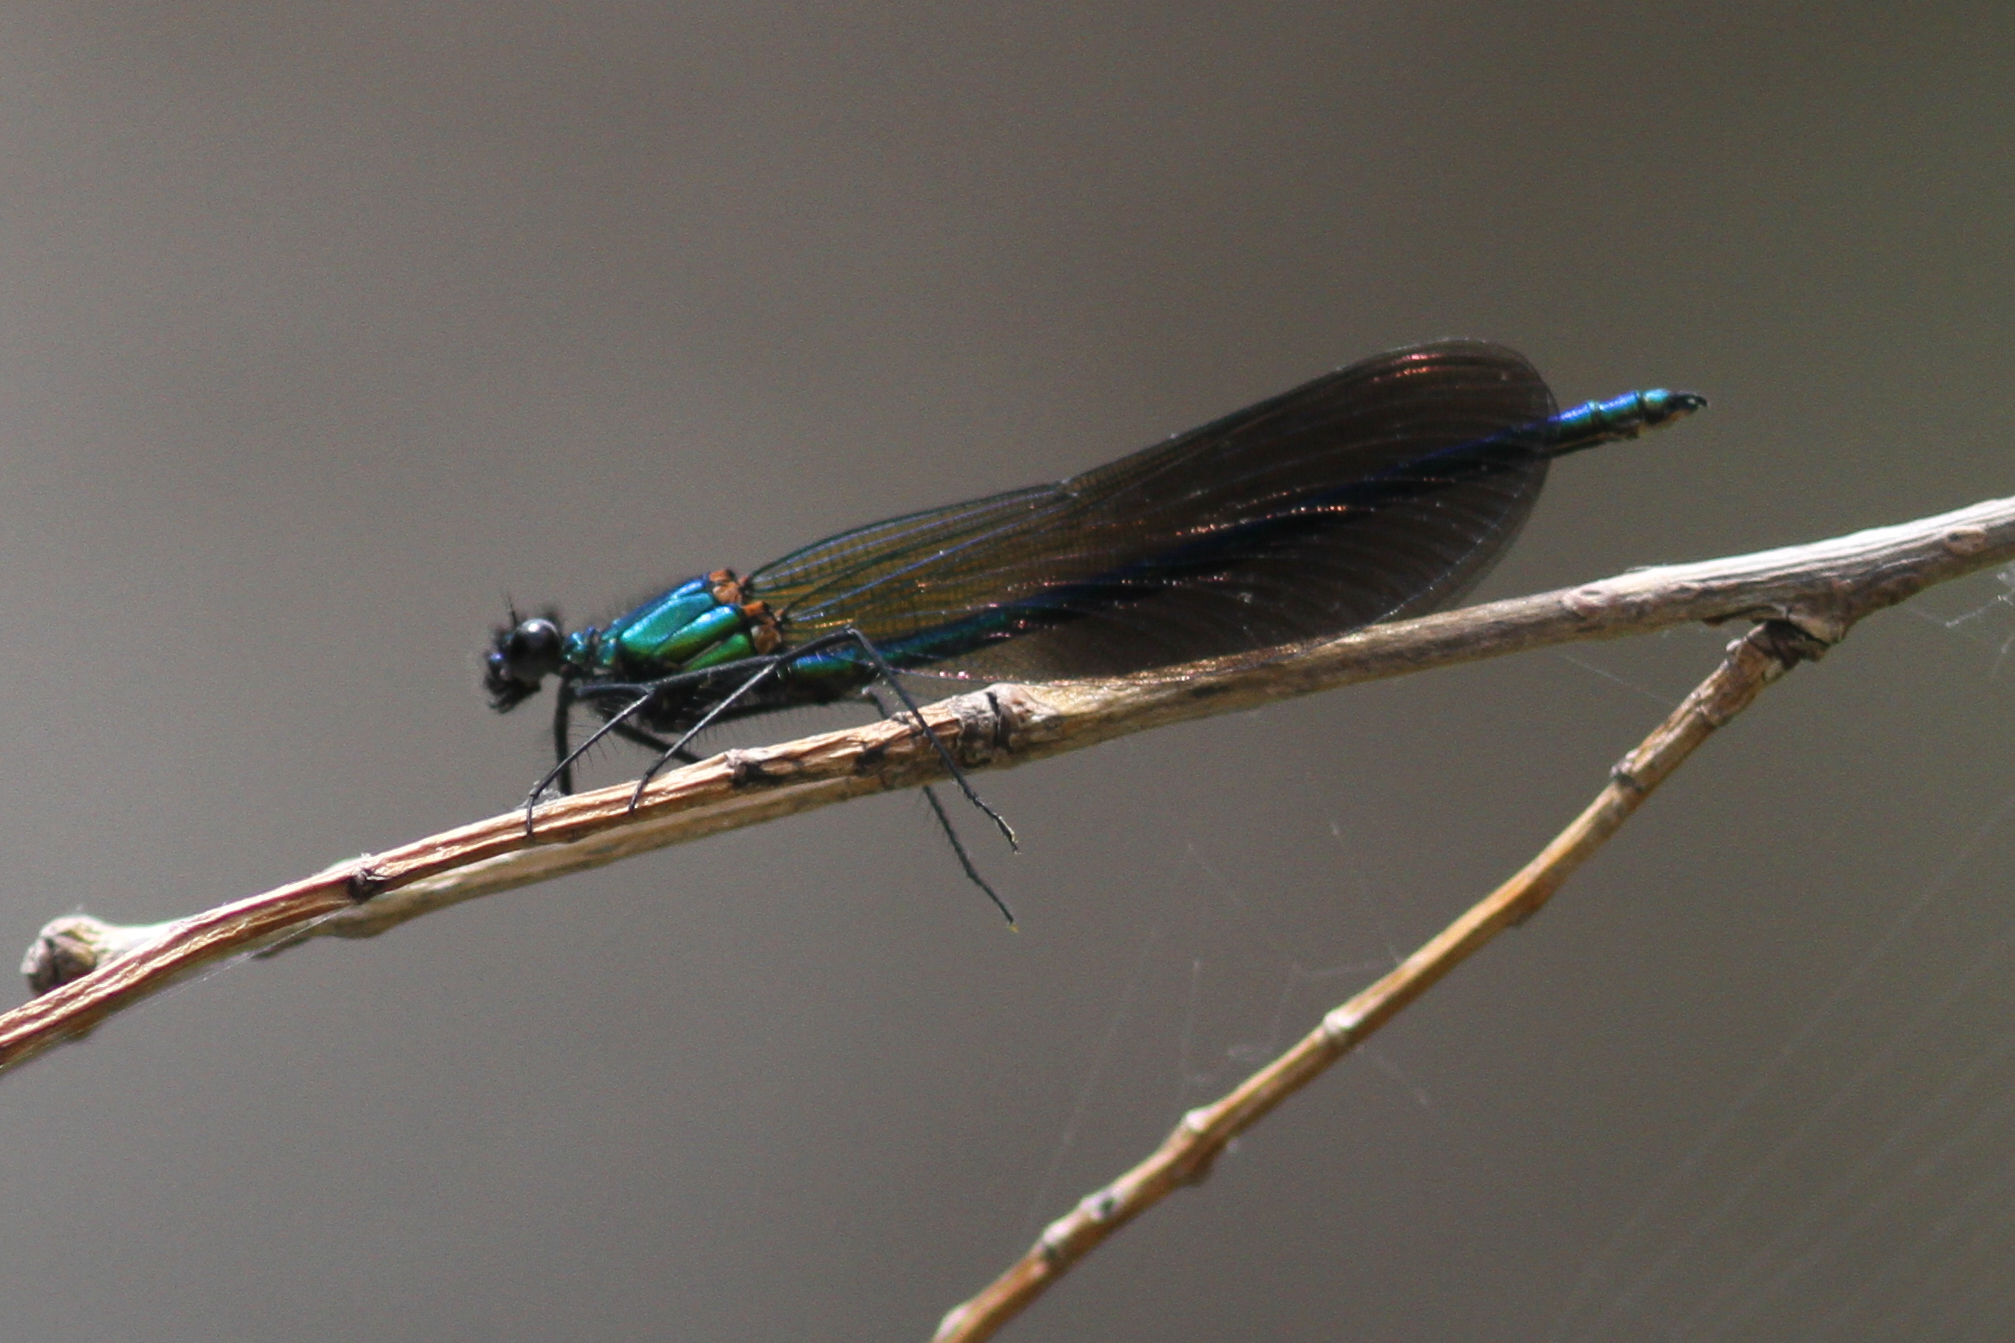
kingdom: Animalia
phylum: Arthropoda
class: Insecta
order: Odonata
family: Calopterygidae
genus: Calopteryx
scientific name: Calopteryx xanthostoma
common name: Western demoiselle
